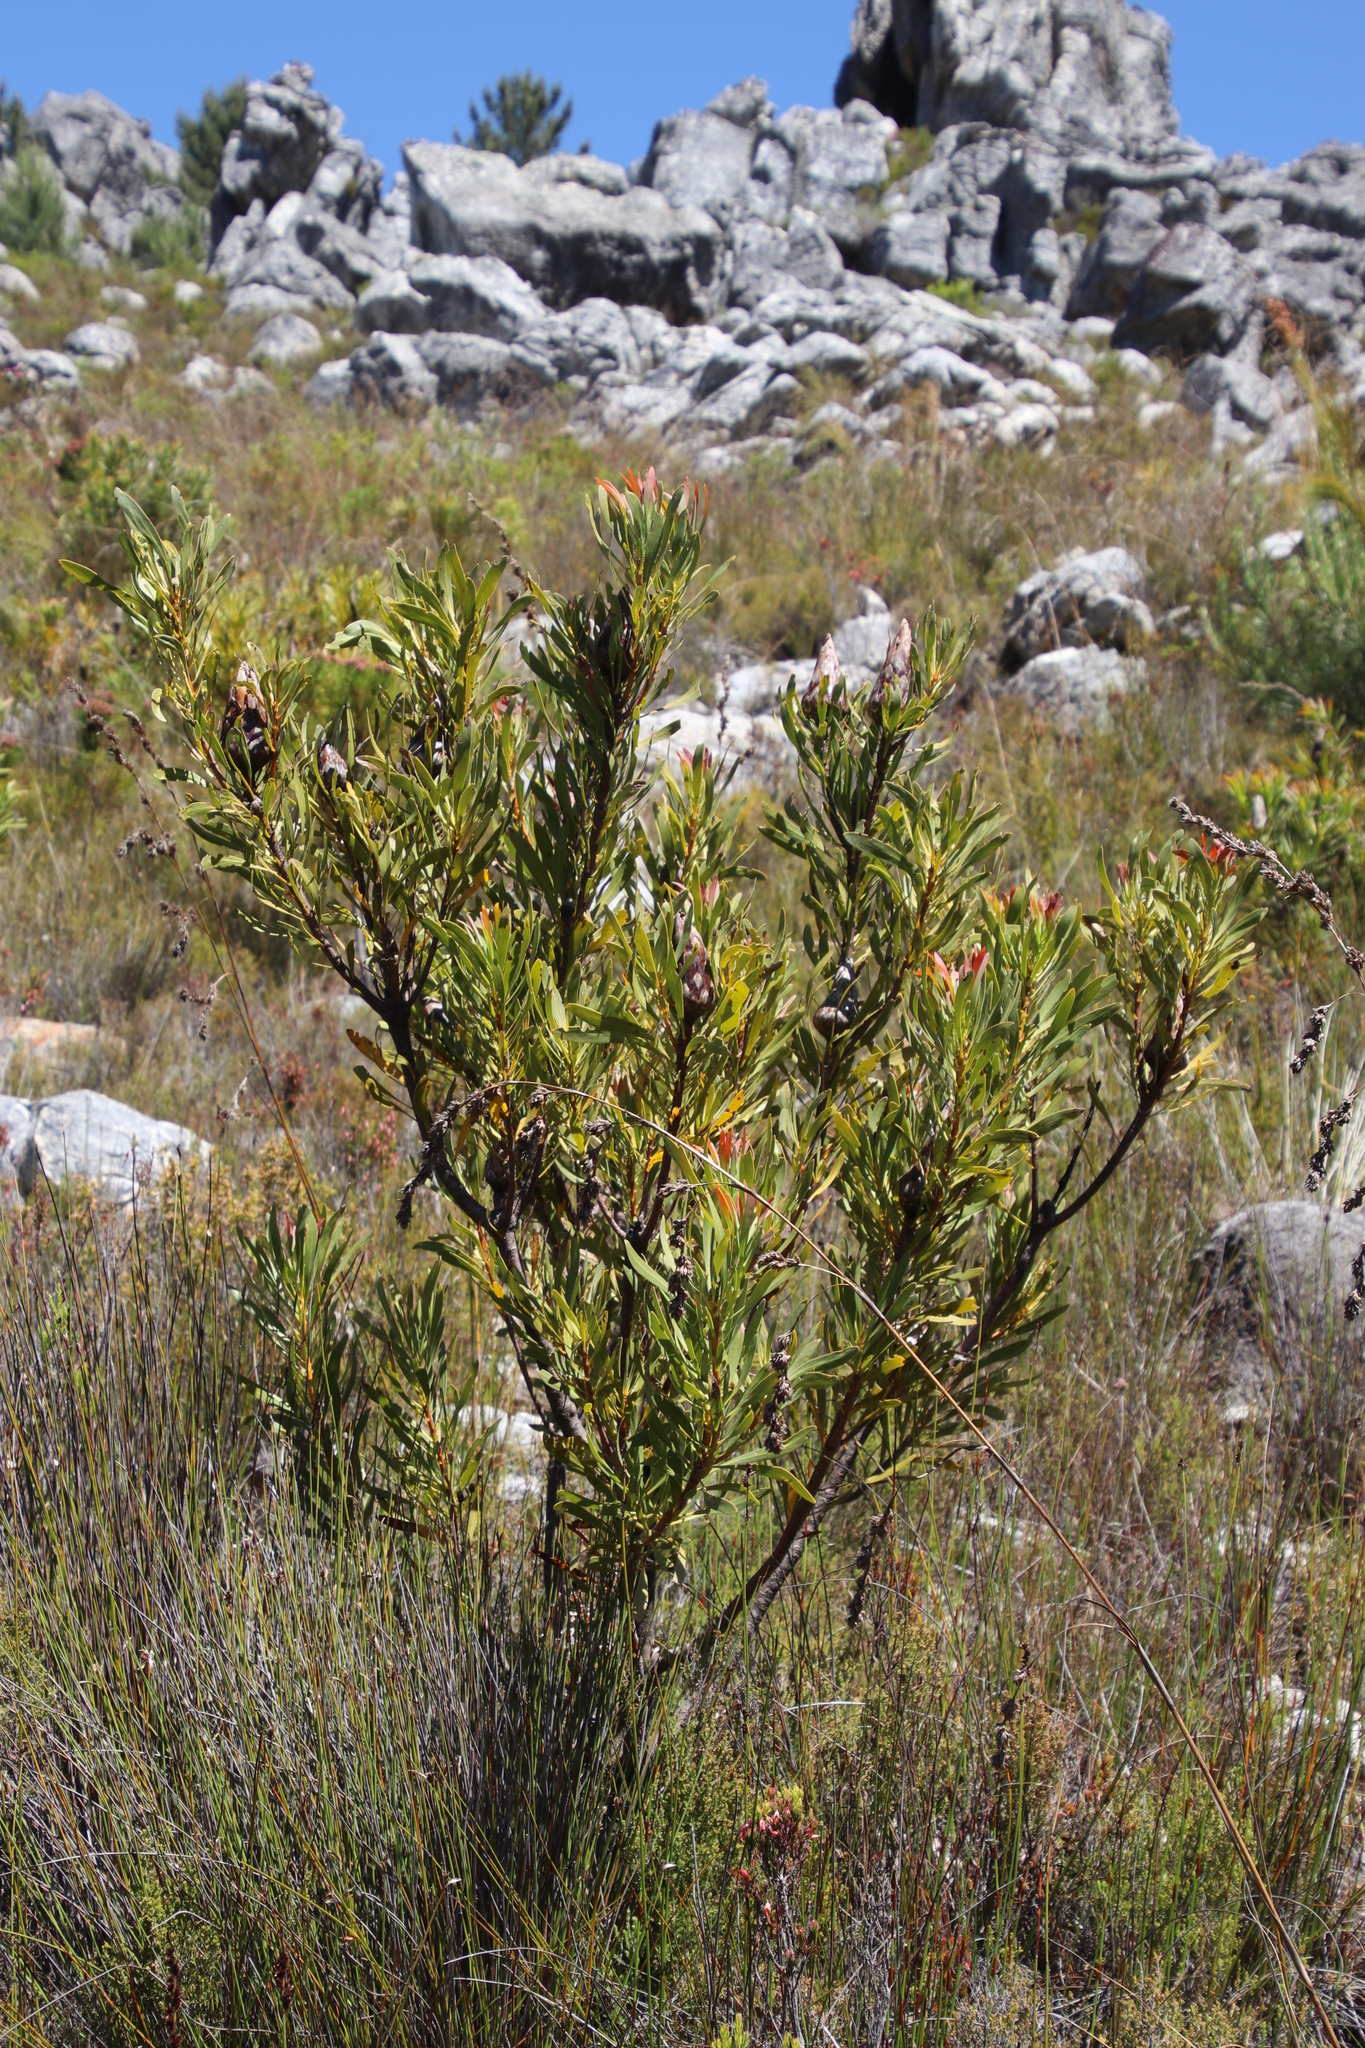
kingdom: Plantae
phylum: Tracheophyta
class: Magnoliopsida
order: Proteales
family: Proteaceae
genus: Protea
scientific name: Protea repens
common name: Sugarbush
